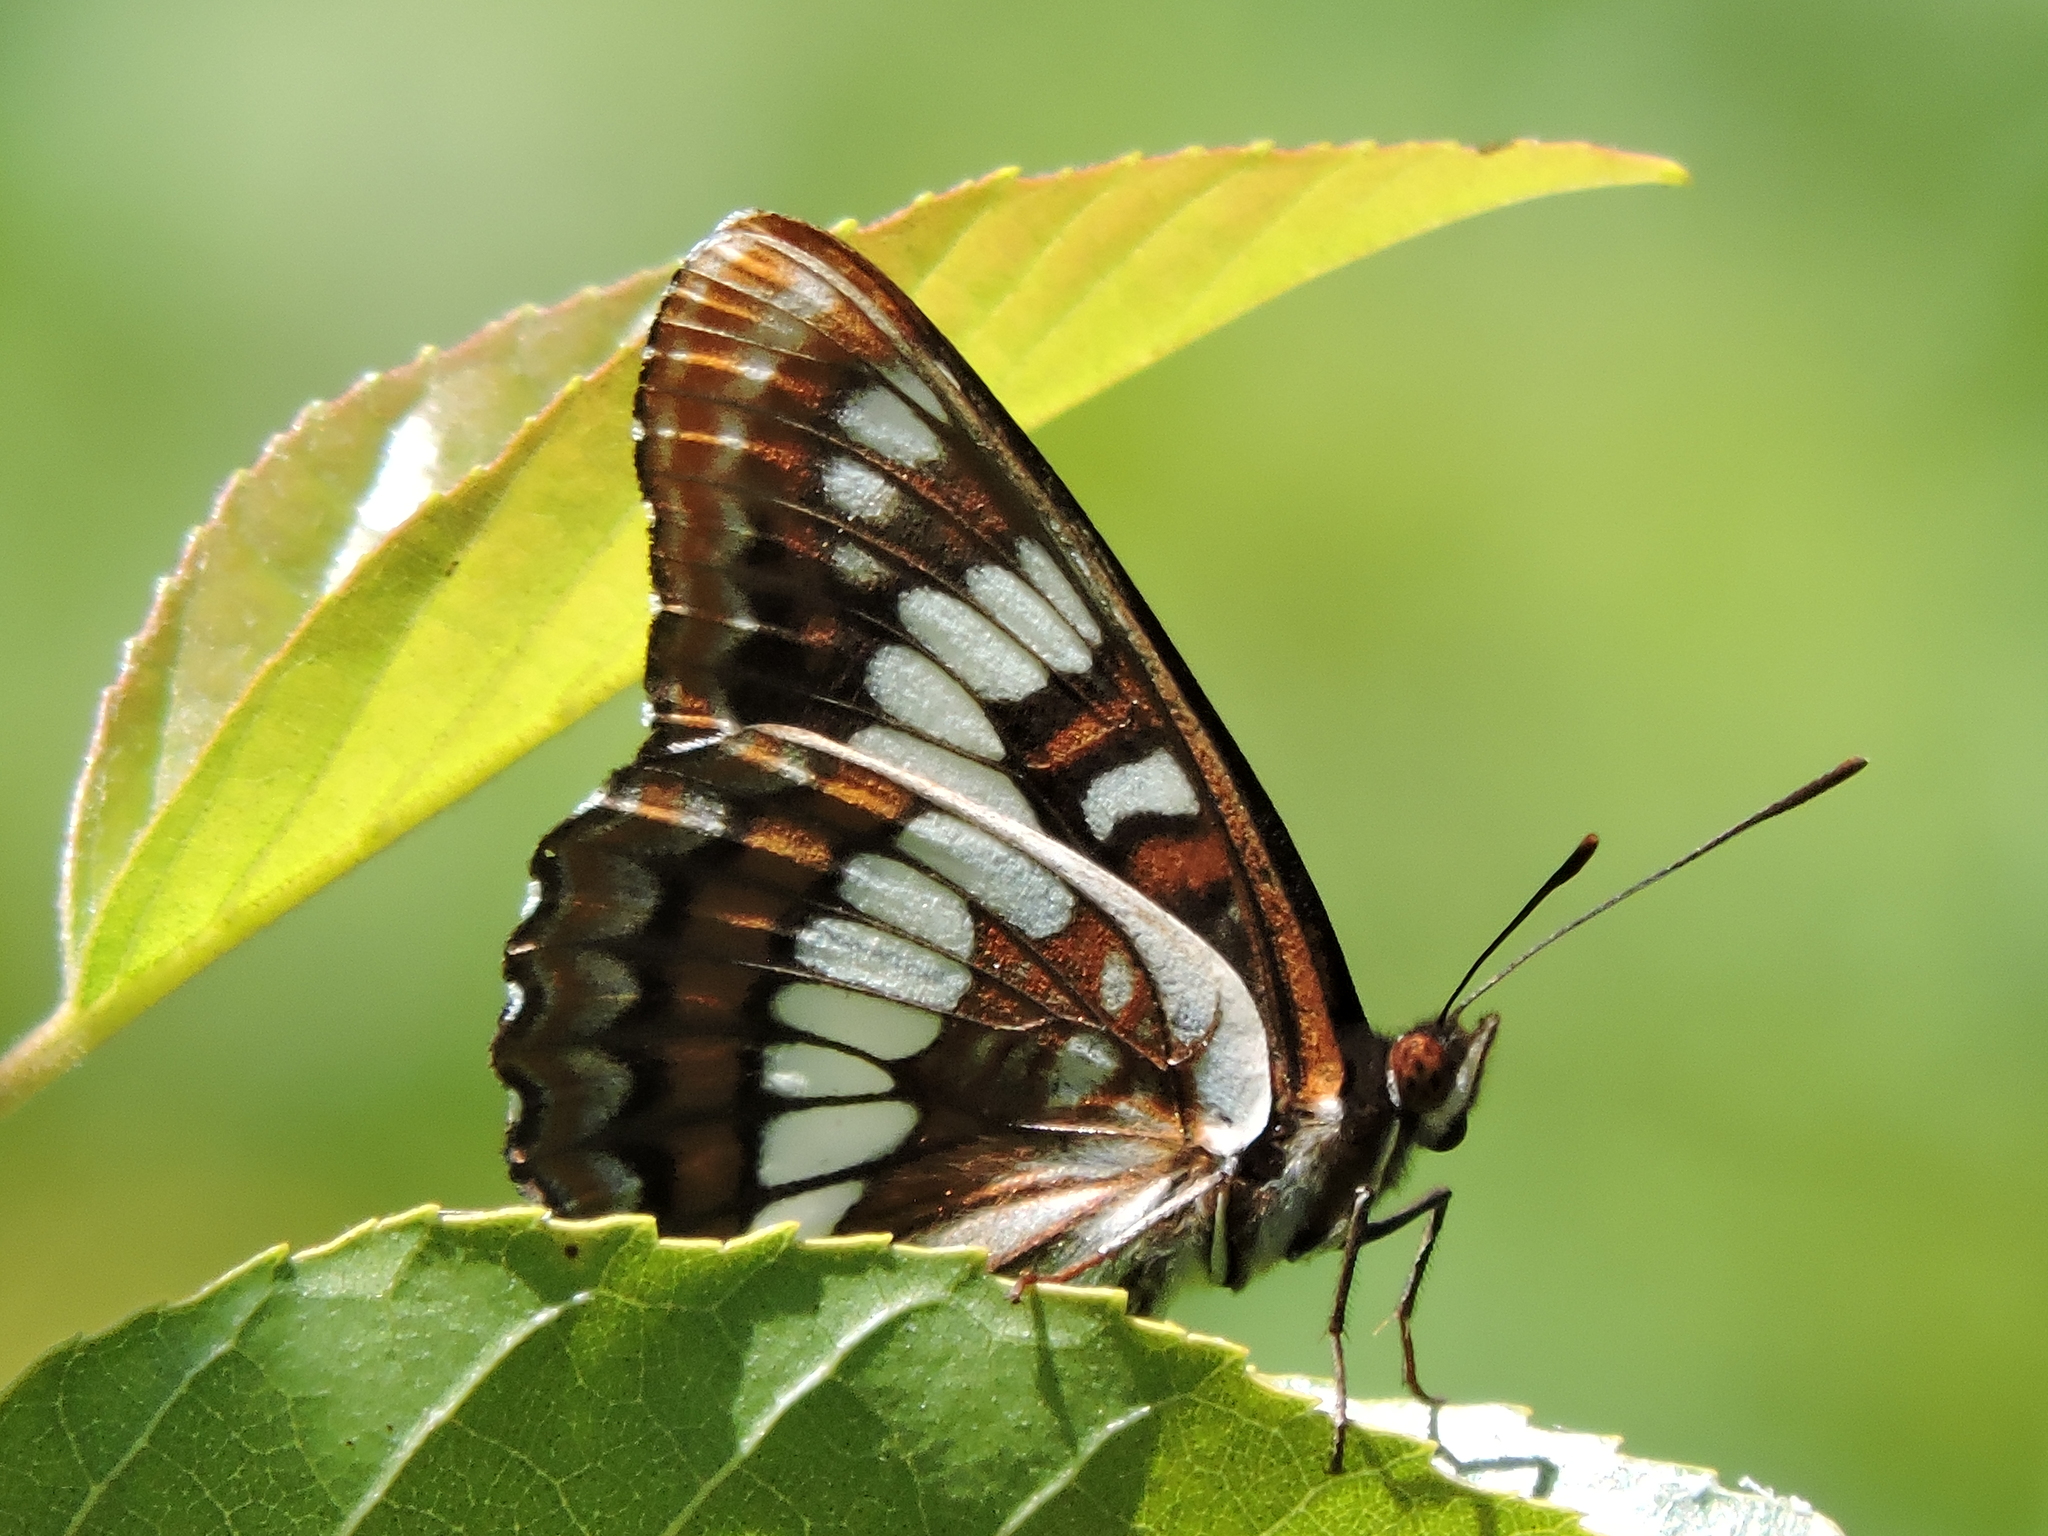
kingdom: Animalia
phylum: Arthropoda
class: Insecta
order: Lepidoptera
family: Nymphalidae
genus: Limenitis
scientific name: Limenitis lorquini
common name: Lorquin's admiral
